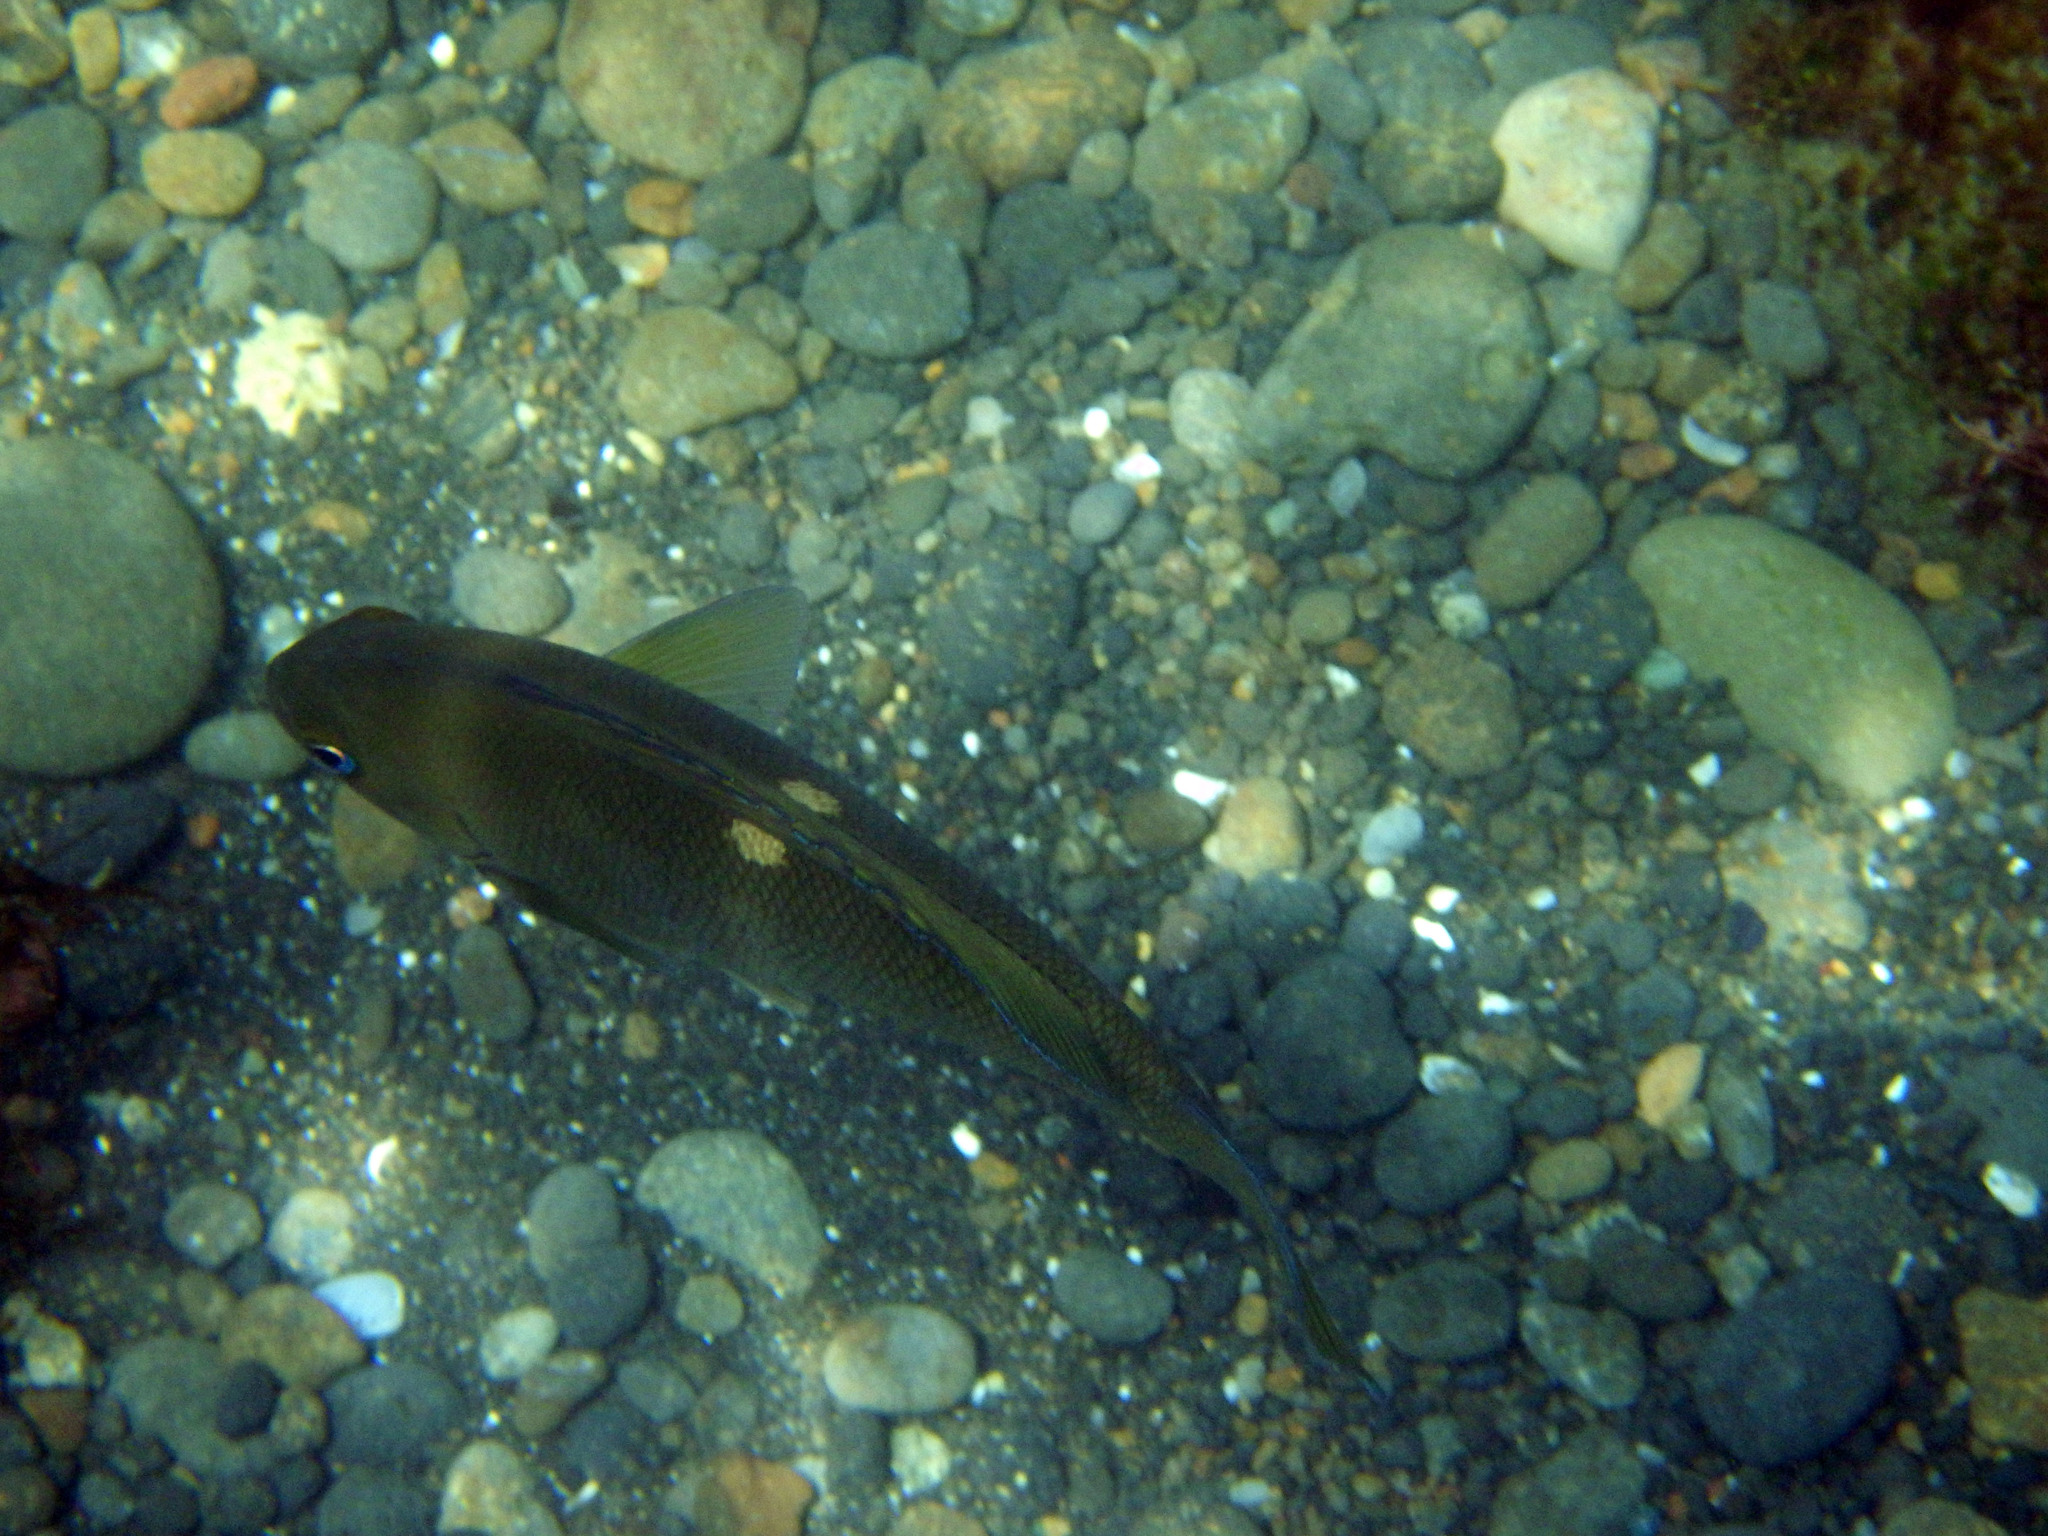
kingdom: Animalia
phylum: Chordata
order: Perciformes
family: Kyphosidae
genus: Girella
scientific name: Girella nigricans
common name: Opaleye
